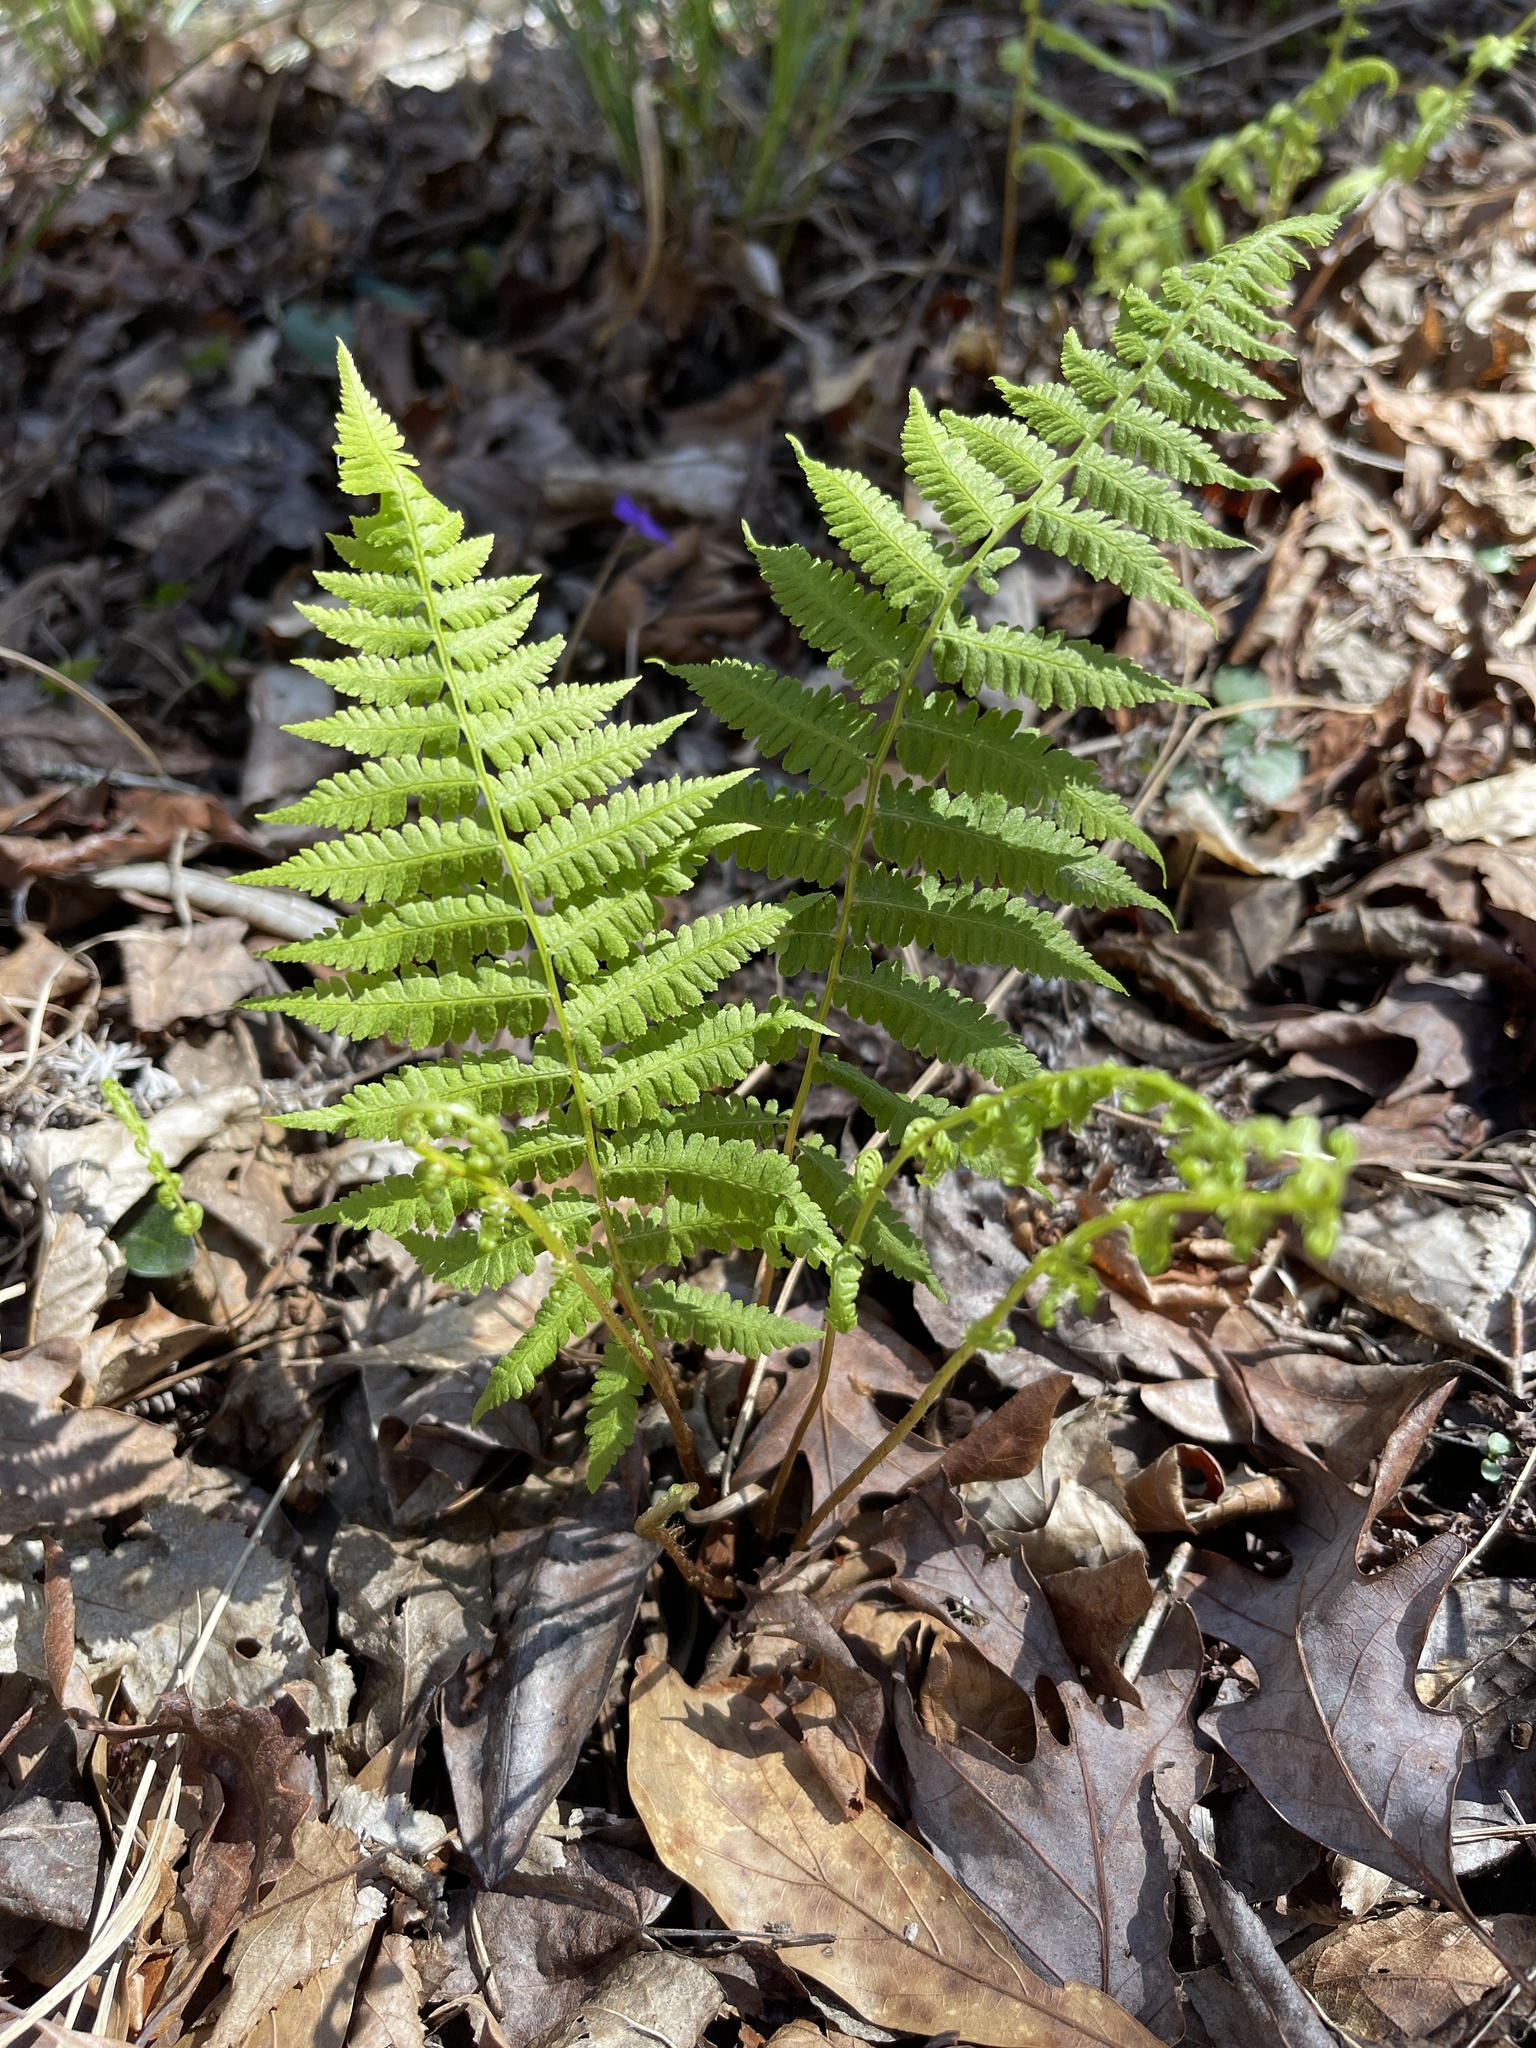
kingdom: Plantae
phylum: Tracheophyta
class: Polypodiopsida
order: Polypodiales
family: Athyriaceae
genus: Athyrium
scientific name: Athyrium asplenioides
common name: Southern lady fern
